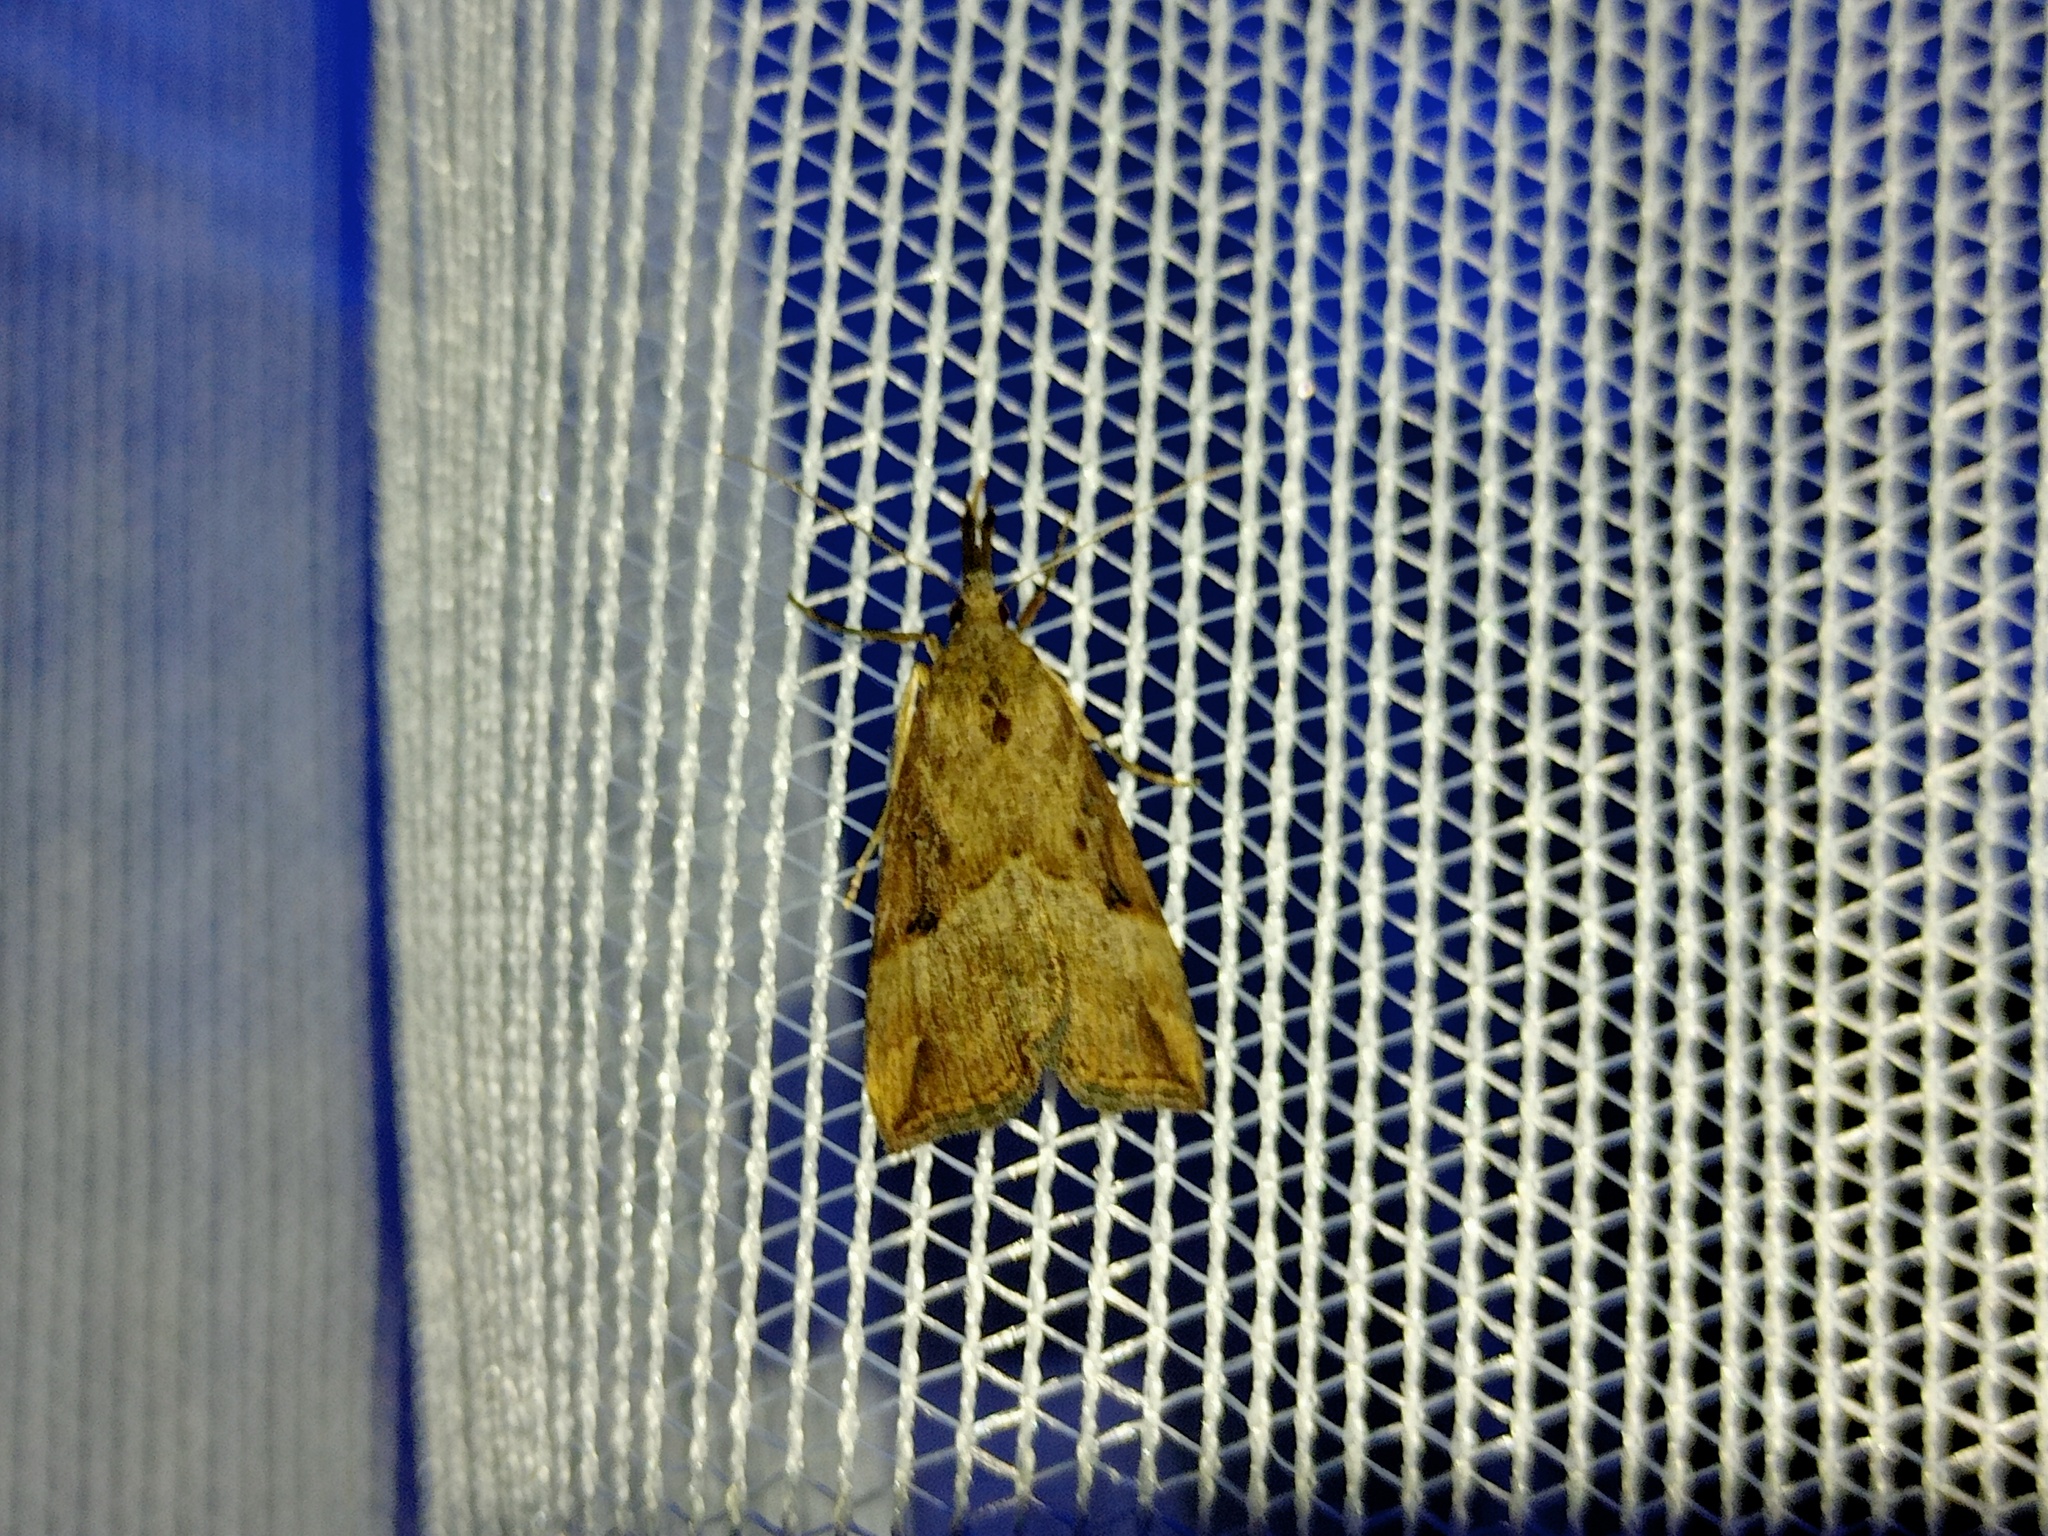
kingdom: Animalia
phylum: Arthropoda
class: Insecta
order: Lepidoptera
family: Erebidae
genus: Hypena
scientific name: Hypena rostralis
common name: Buttoned snout
